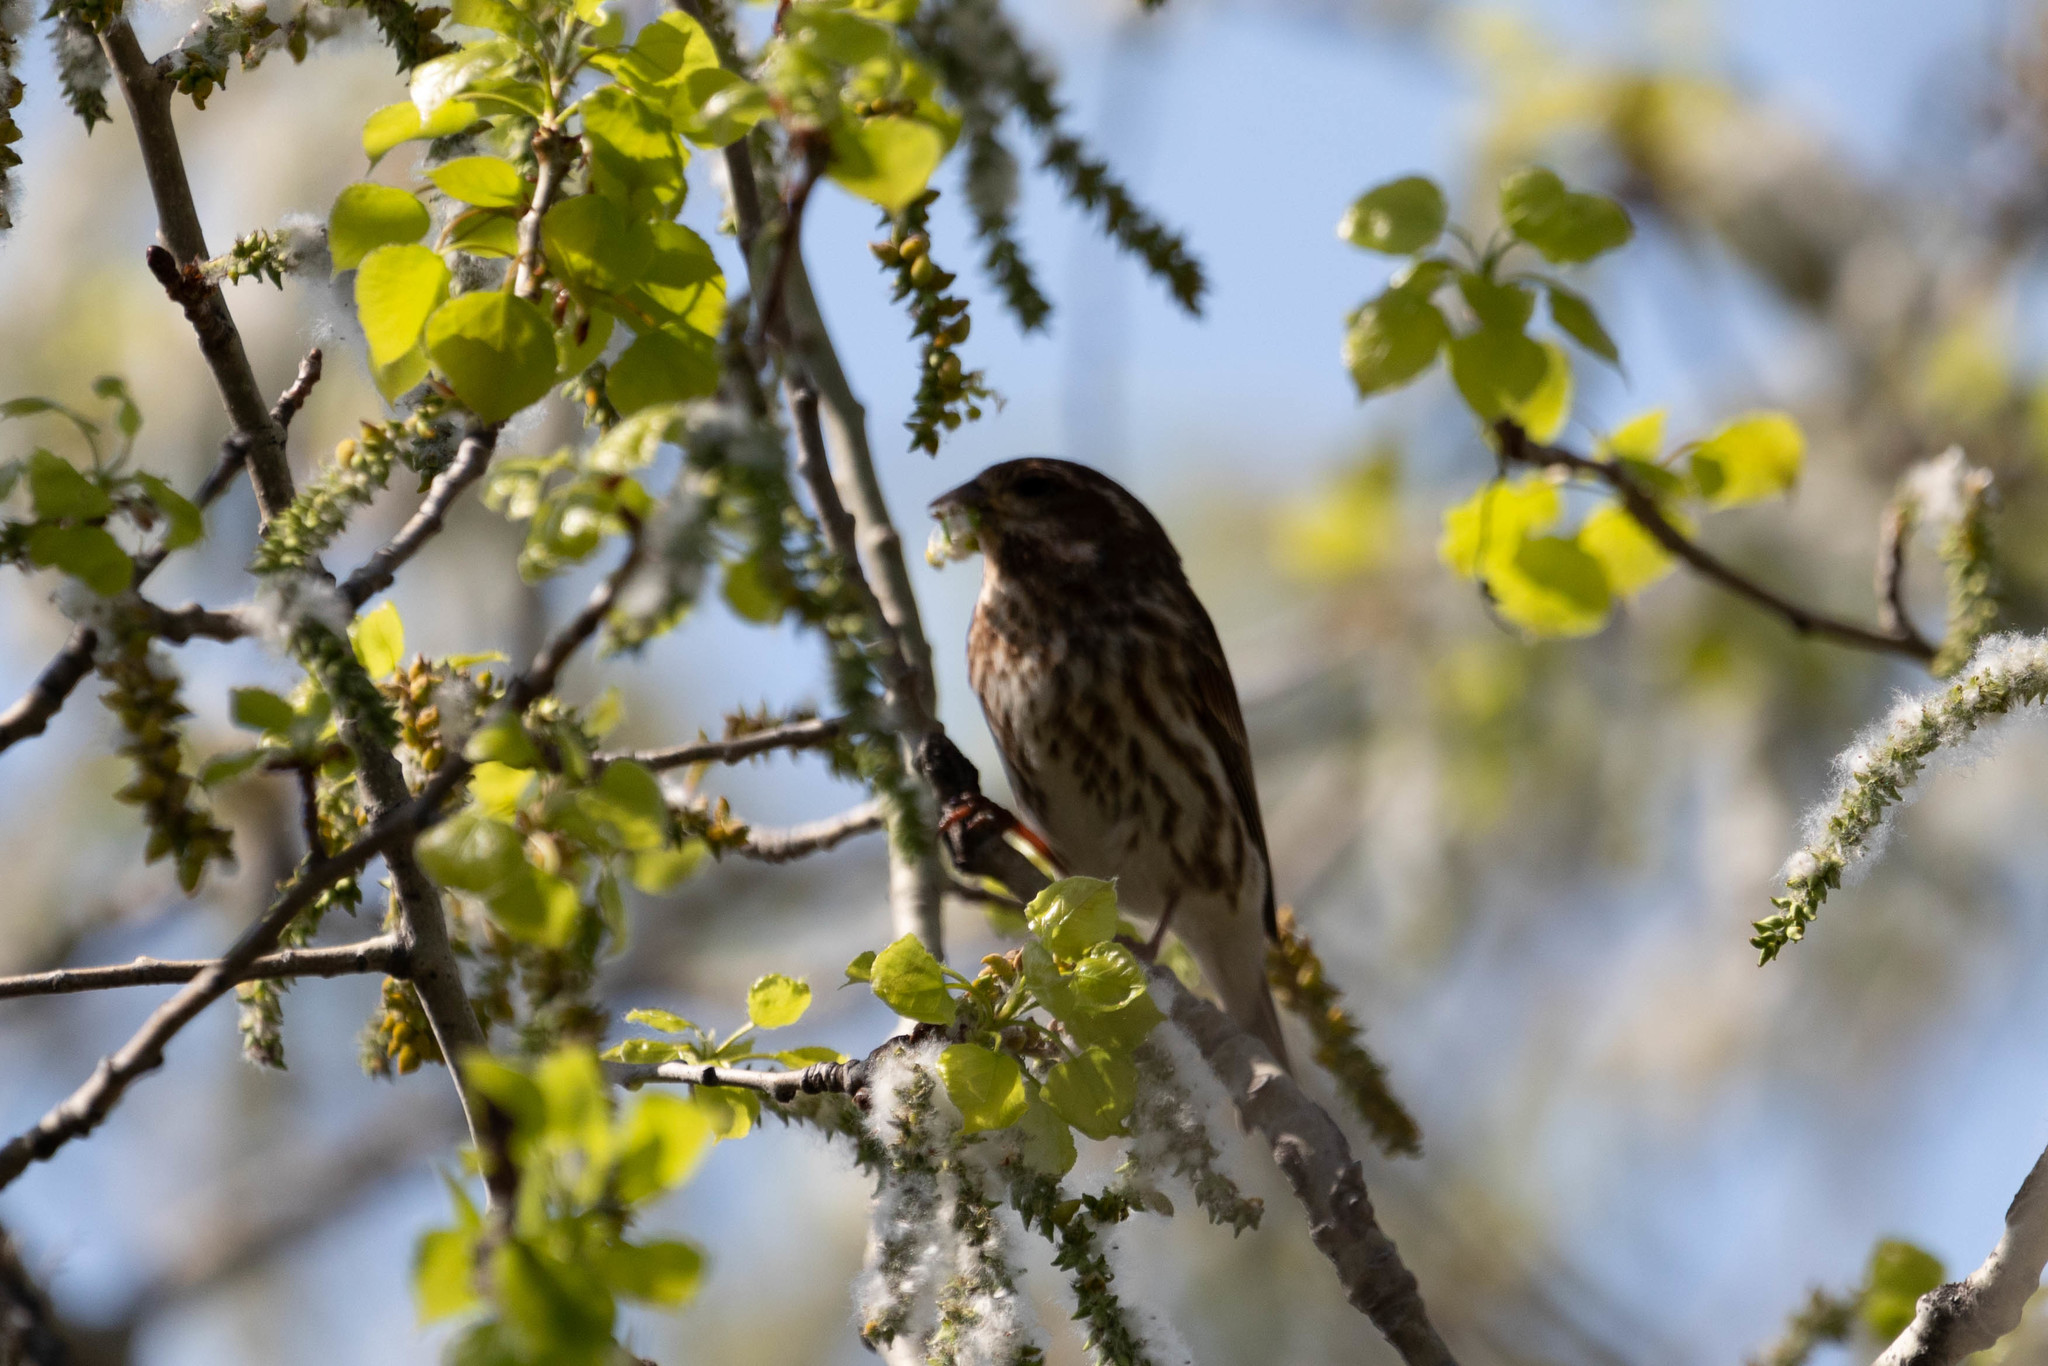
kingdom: Animalia
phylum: Chordata
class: Aves
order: Passeriformes
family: Fringillidae
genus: Haemorhous
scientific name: Haemorhous purpureus
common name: Purple finch
